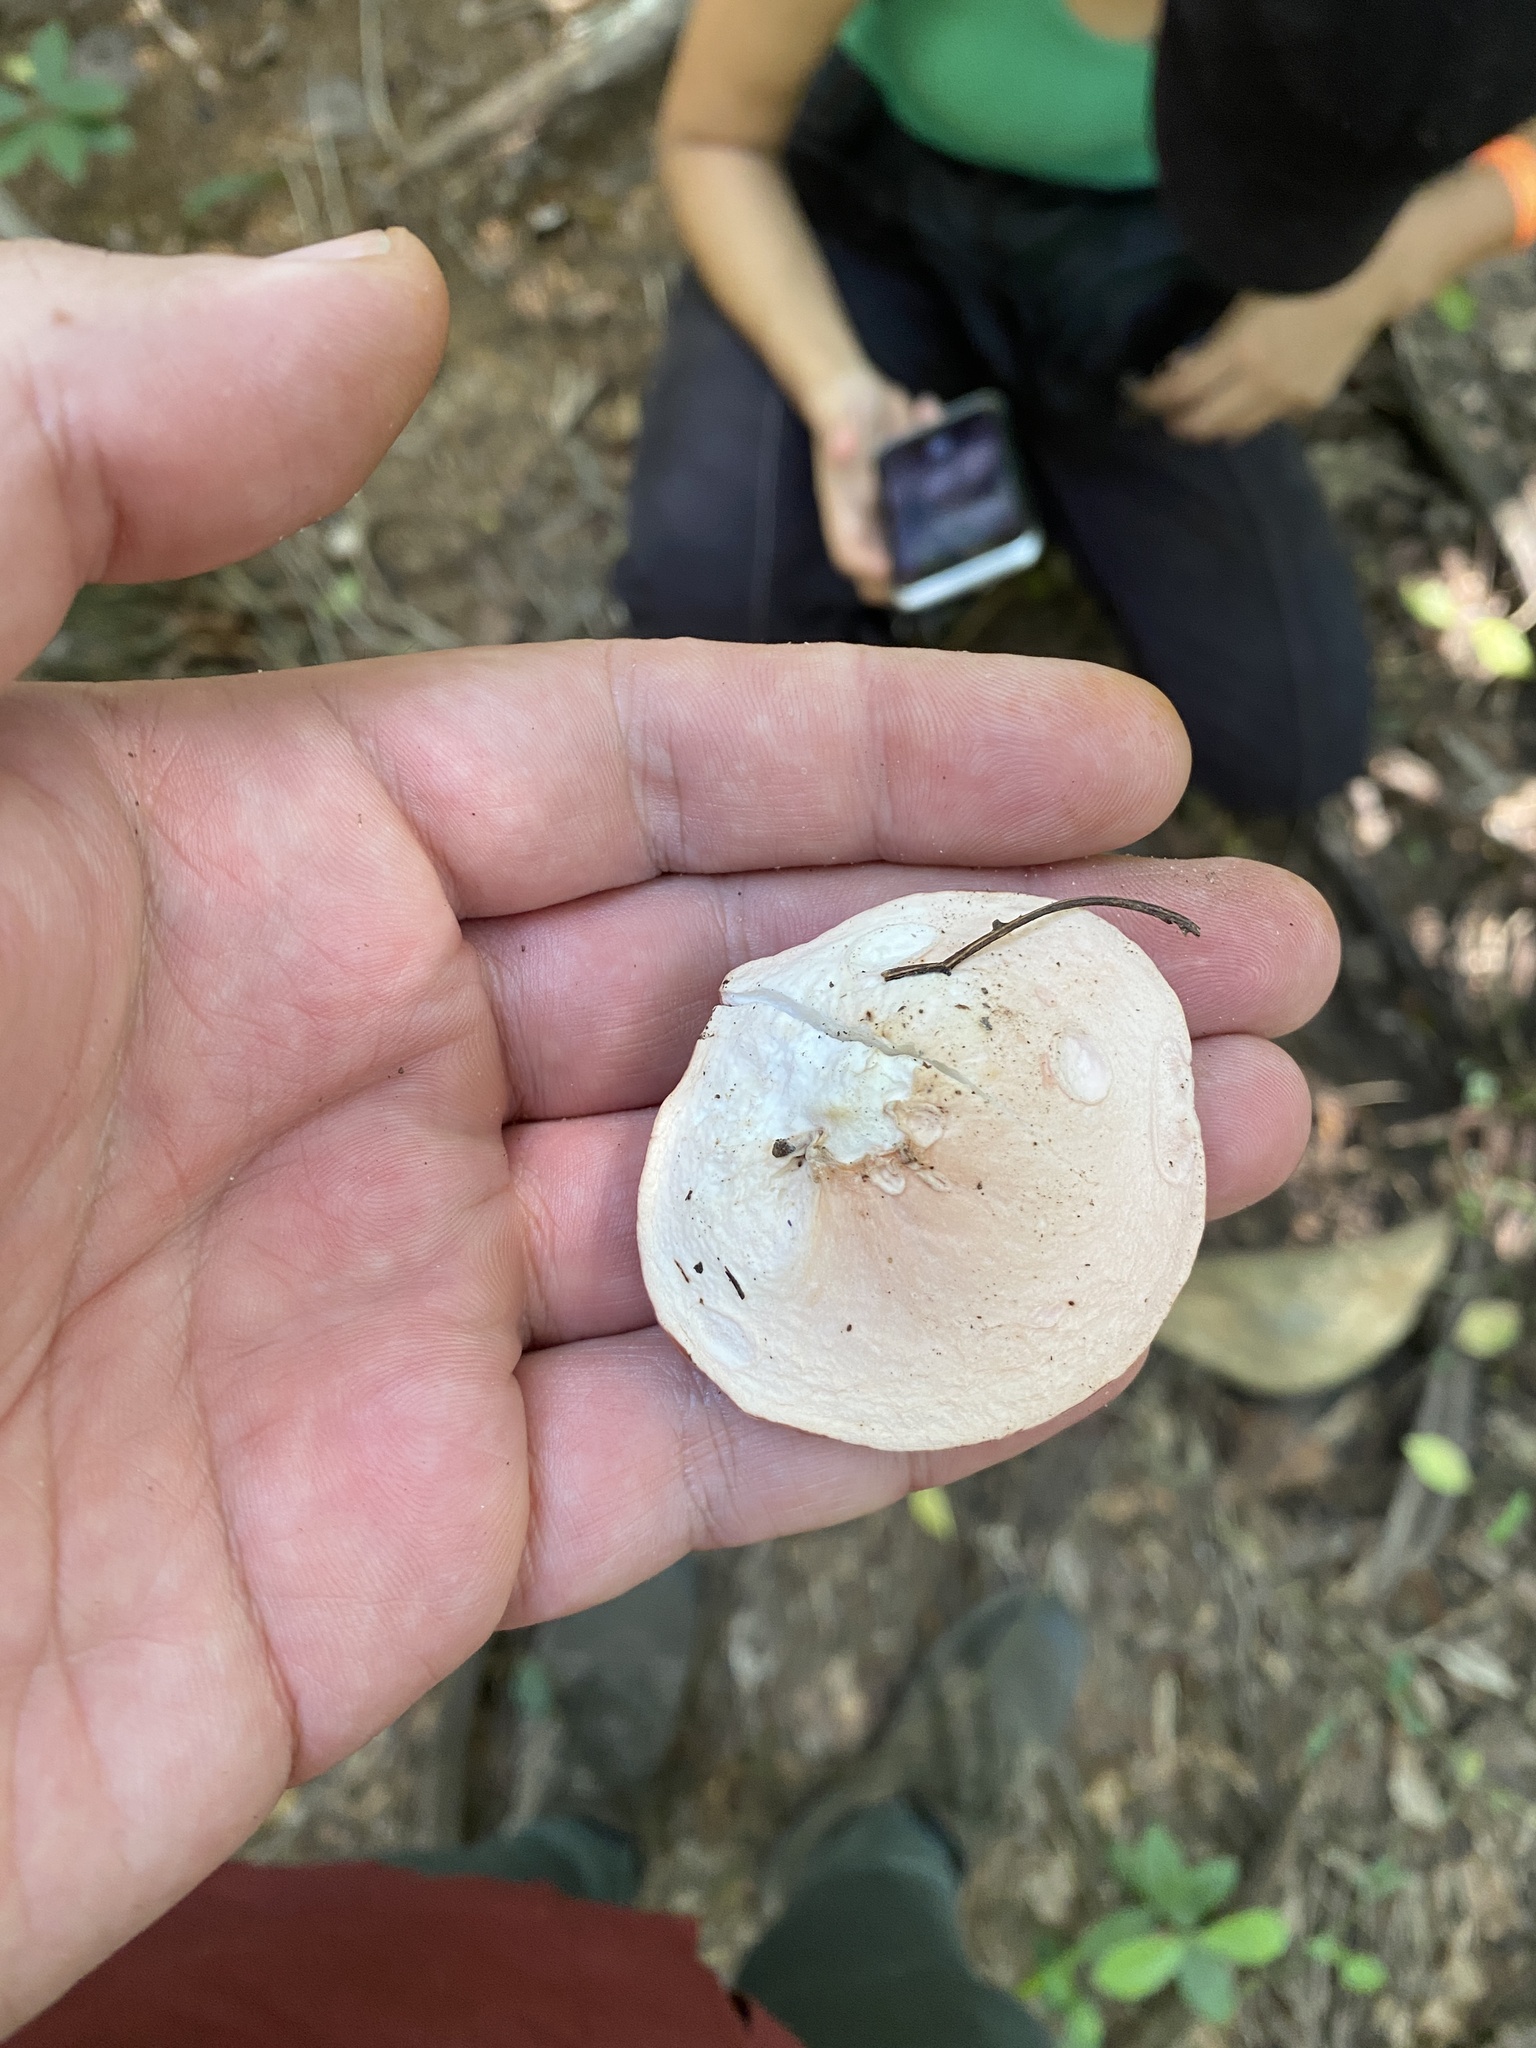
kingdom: Fungi
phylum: Ascomycota
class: Pezizomycetes
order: Pezizales
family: Sarcoscyphaceae
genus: Phillipsia
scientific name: Phillipsia domingensis
